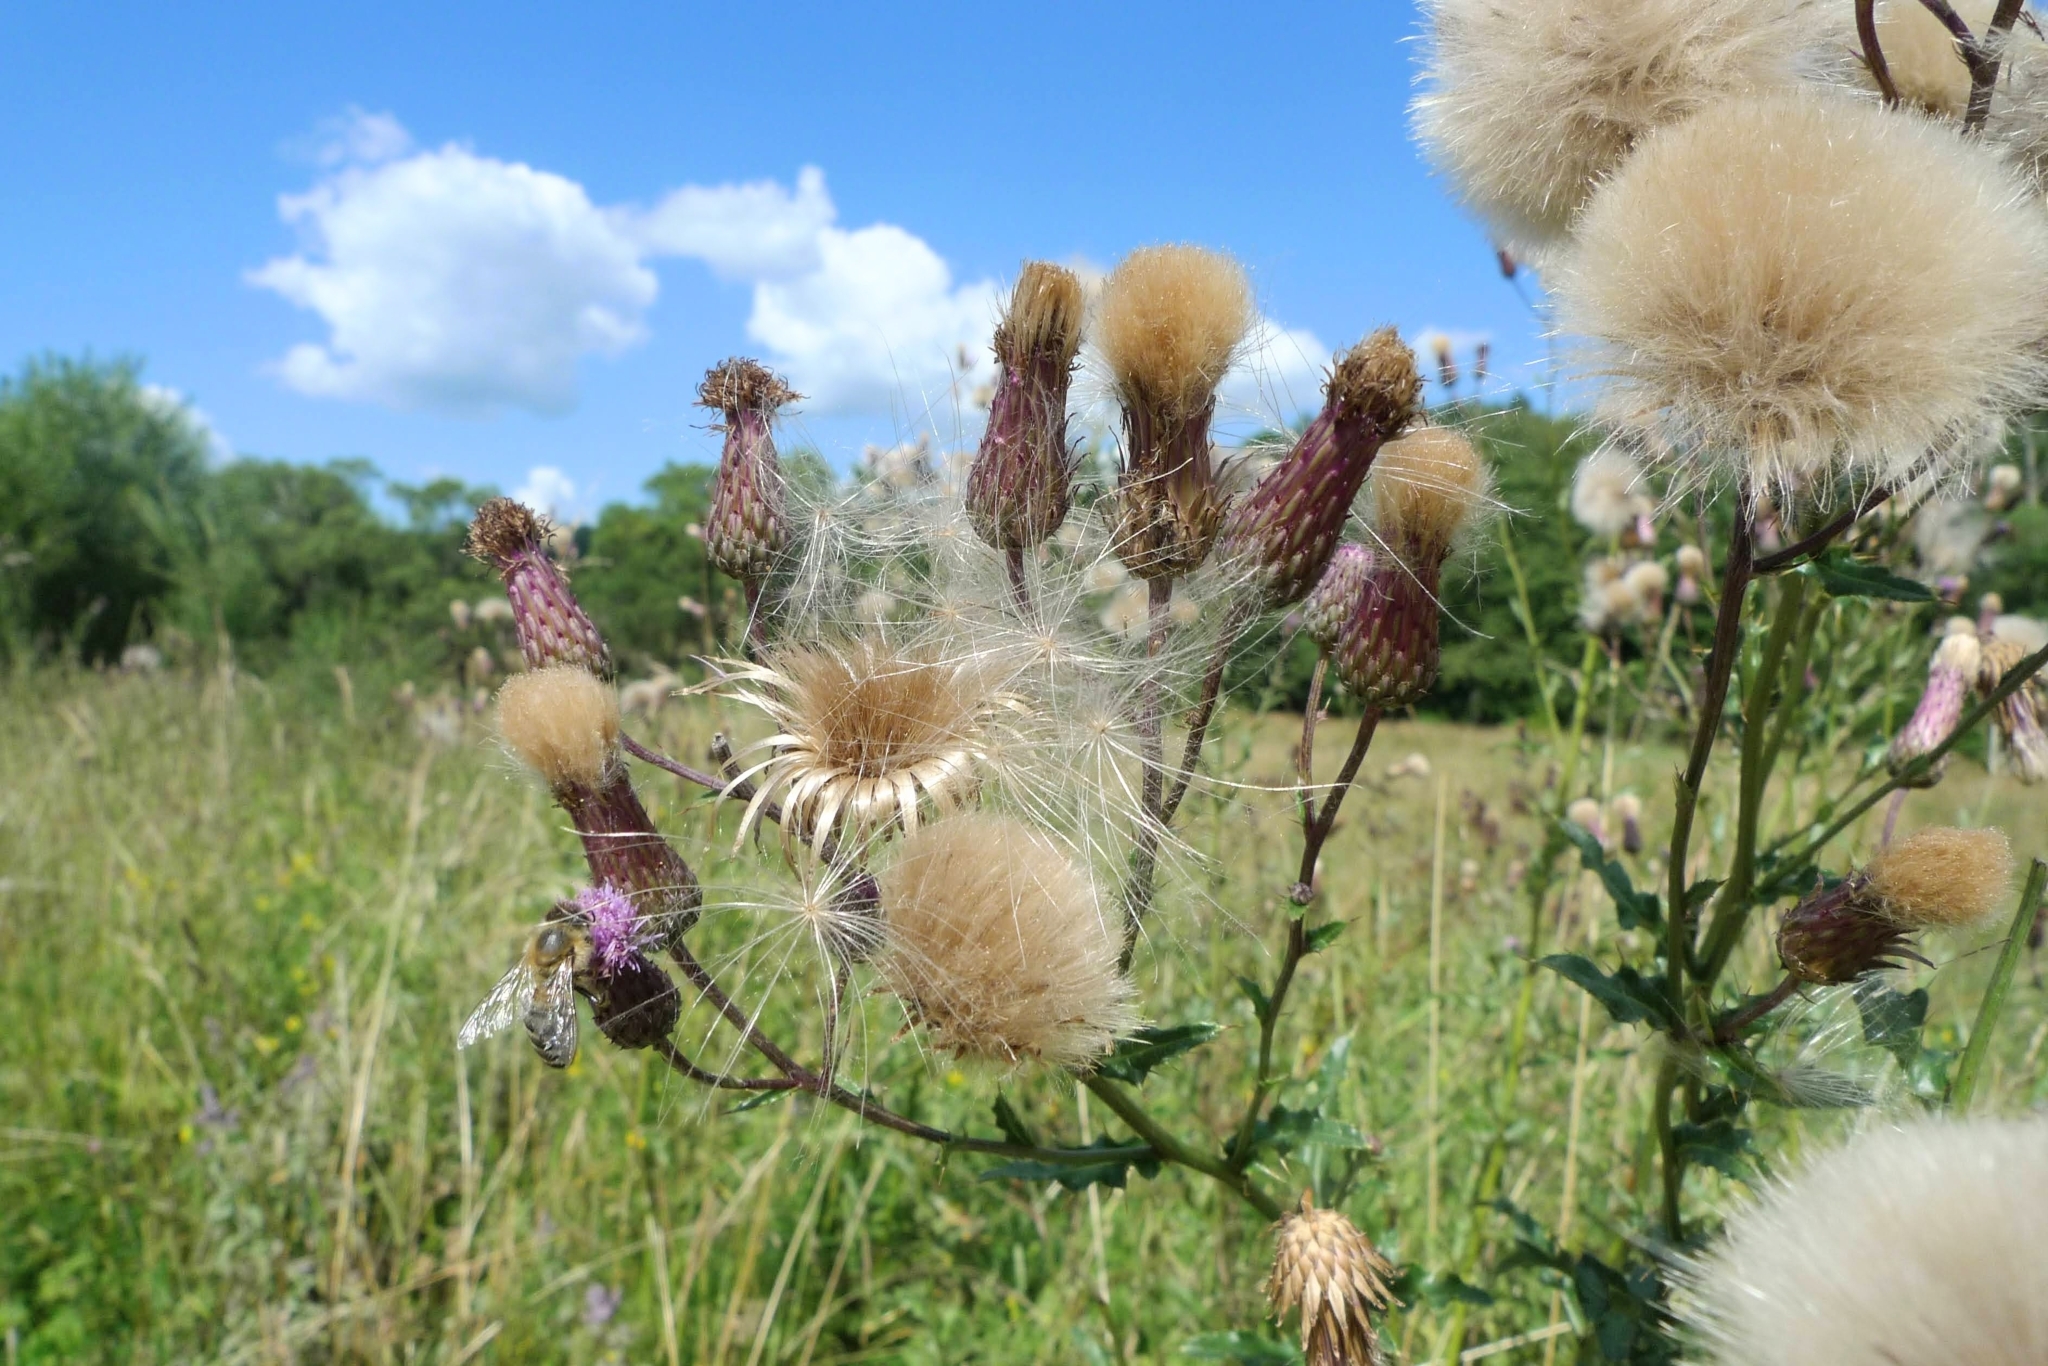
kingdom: Plantae
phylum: Tracheophyta
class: Magnoliopsida
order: Asterales
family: Asteraceae
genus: Cirsium
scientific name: Cirsium arvense
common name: Creeping thistle
